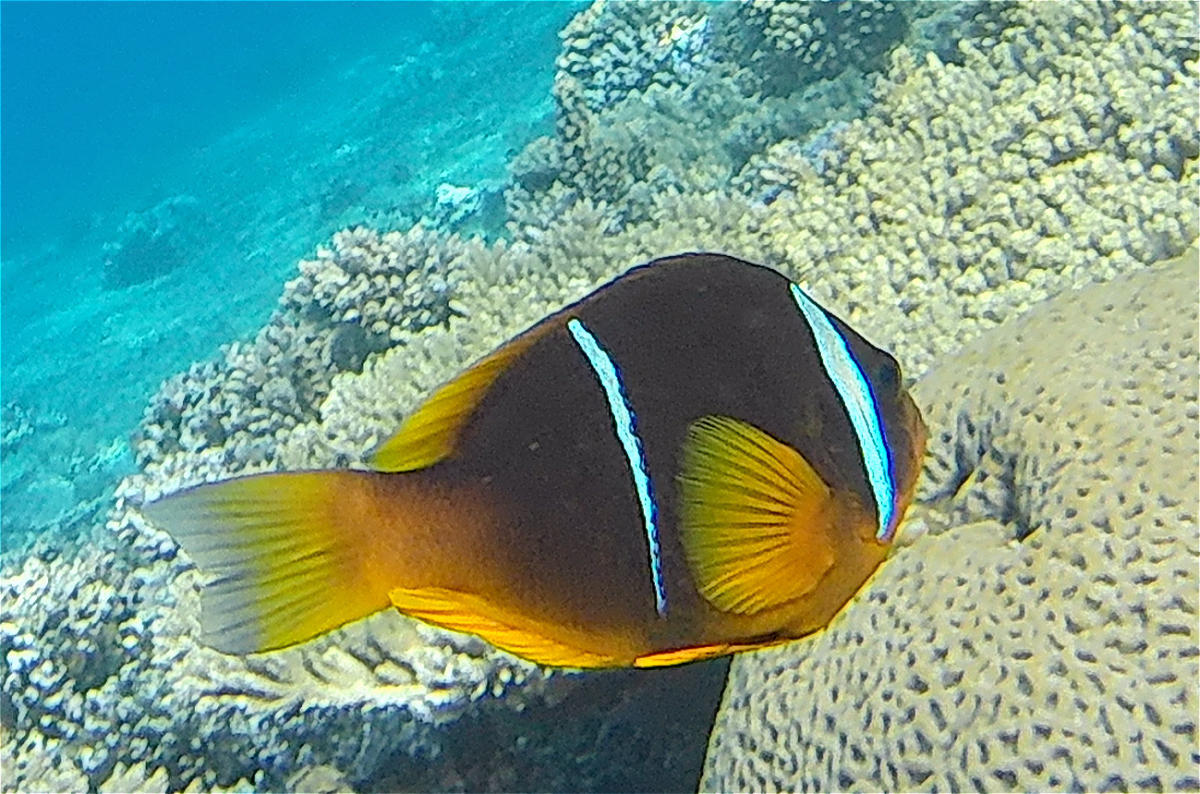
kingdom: Animalia
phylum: Chordata
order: Perciformes
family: Pomacentridae
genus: Amphiprion
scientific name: Amphiprion bicinctus
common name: Two-banded anemonefish
